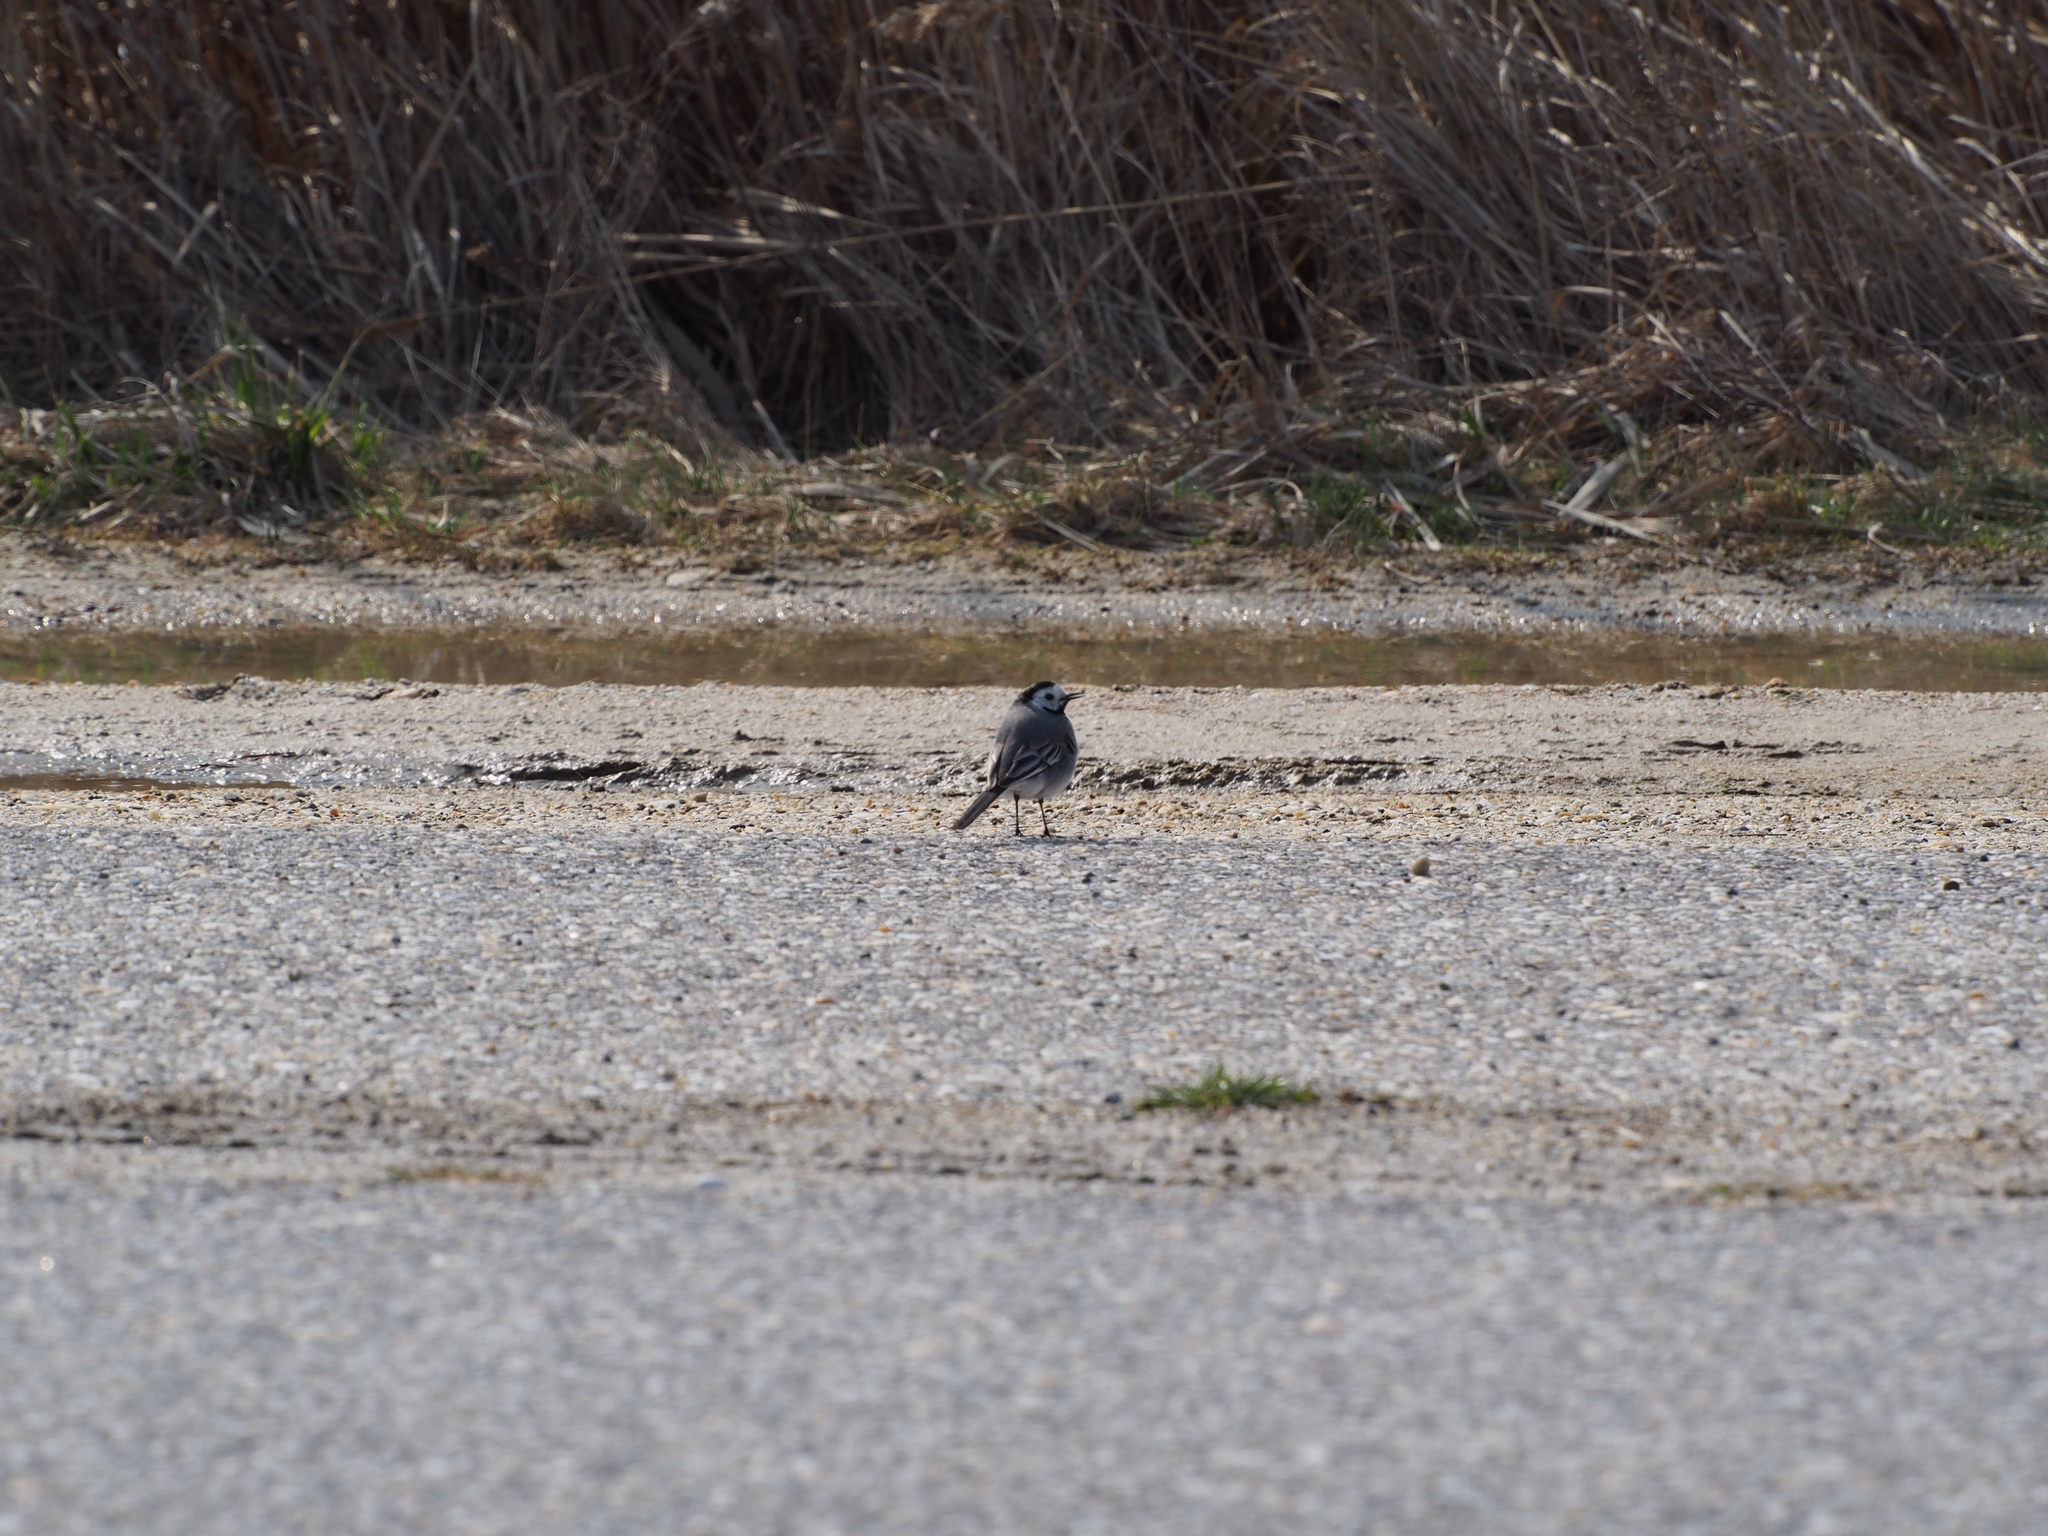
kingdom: Animalia
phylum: Chordata
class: Aves
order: Passeriformes
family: Motacillidae
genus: Motacilla
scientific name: Motacilla alba
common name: White wagtail
